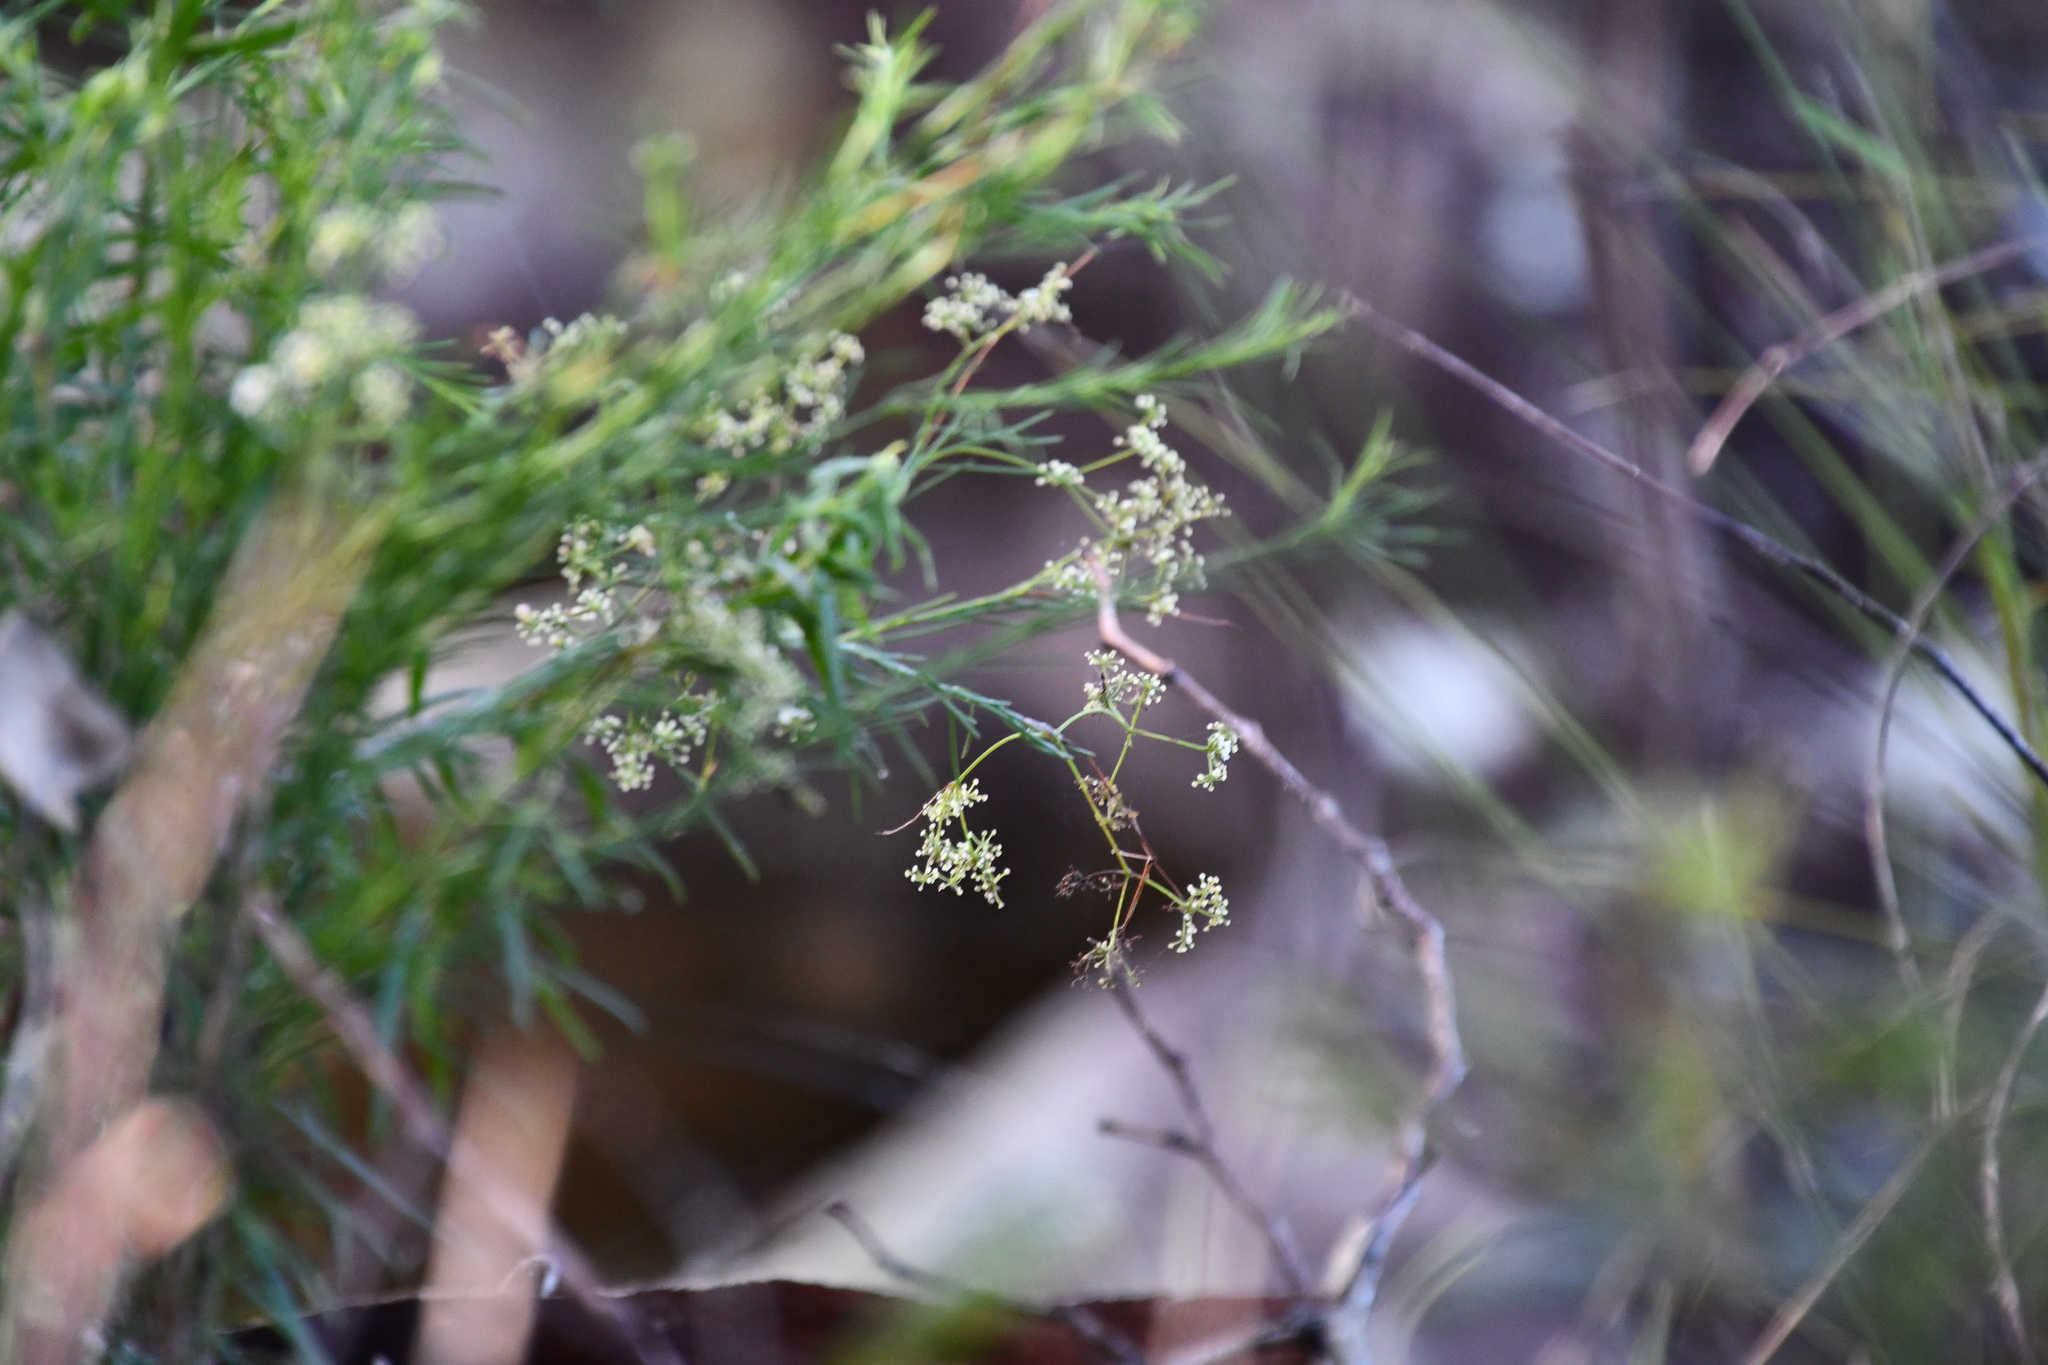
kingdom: Plantae
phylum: Tracheophyta
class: Magnoliopsida
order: Apiales
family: Apiaceae
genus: Platysace
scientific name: Platysace linearifolia
